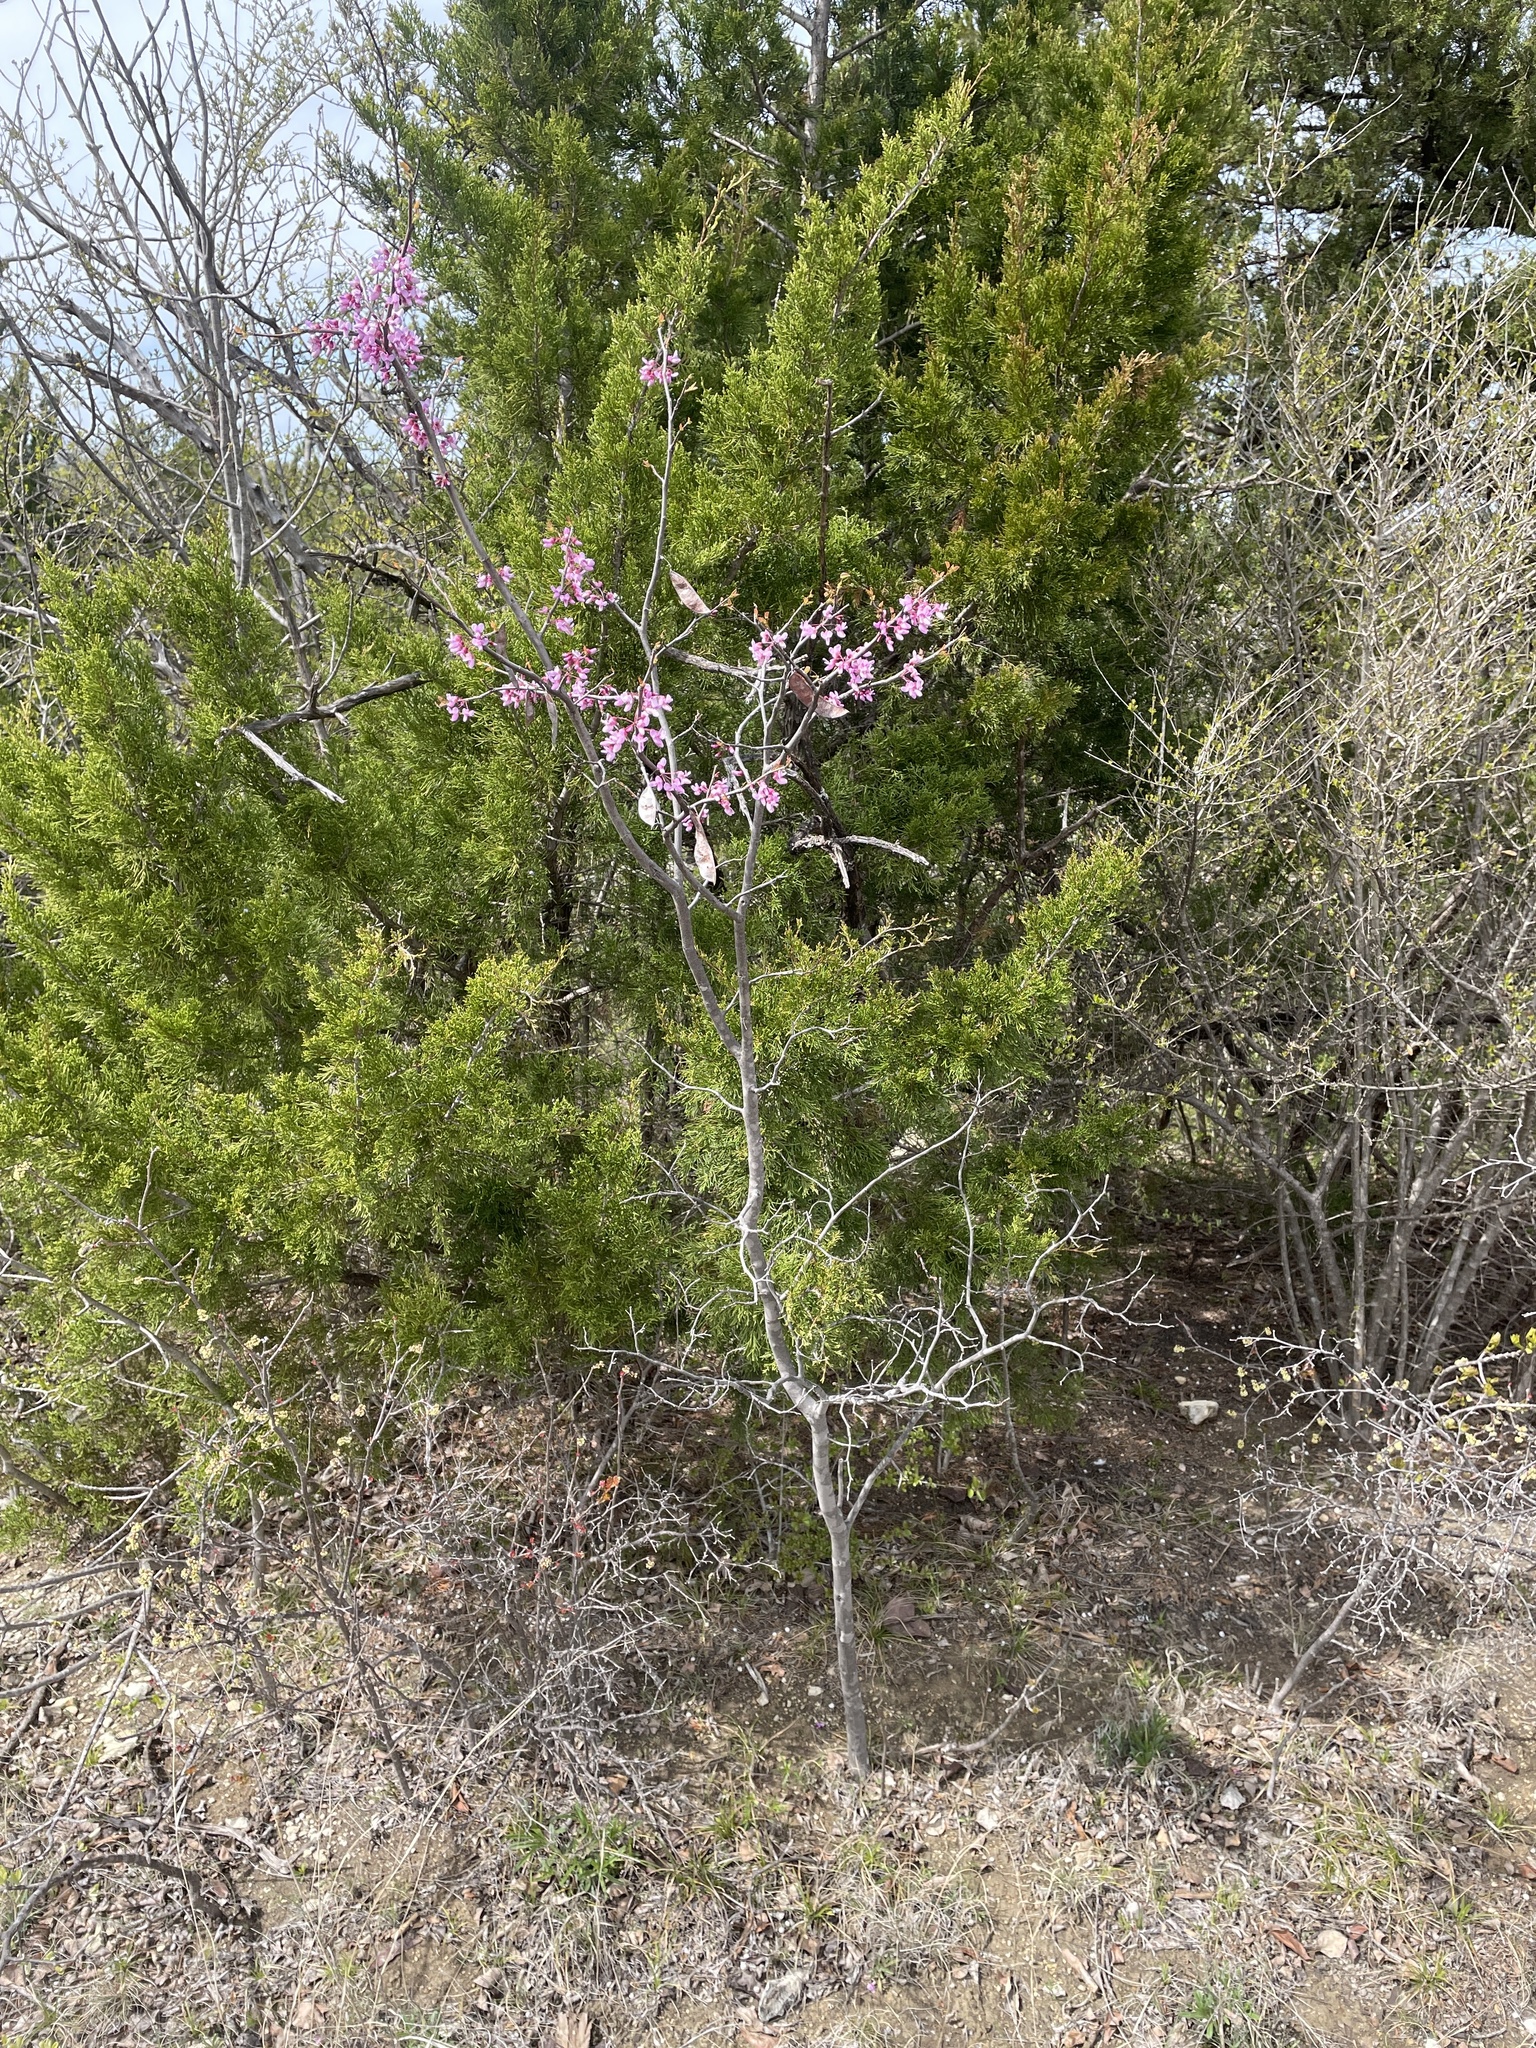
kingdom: Plantae
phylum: Tracheophyta
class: Magnoliopsida
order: Fabales
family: Fabaceae
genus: Cercis
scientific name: Cercis canadensis
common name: Eastern redbud
